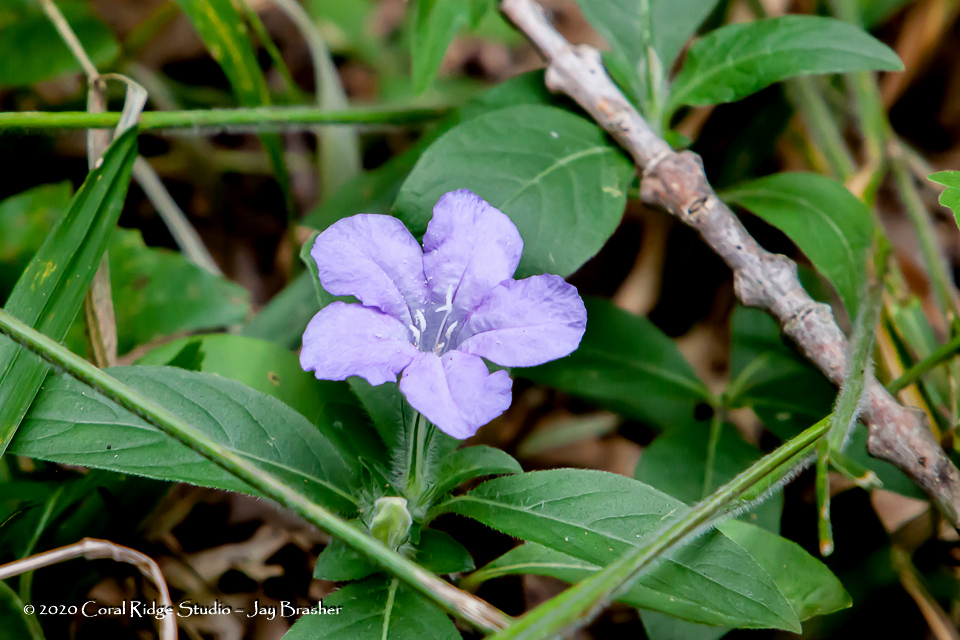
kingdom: Plantae
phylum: Tracheophyta
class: Magnoliopsida
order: Lamiales
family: Acanthaceae
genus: Ruellia
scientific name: Ruellia caroliniensis
